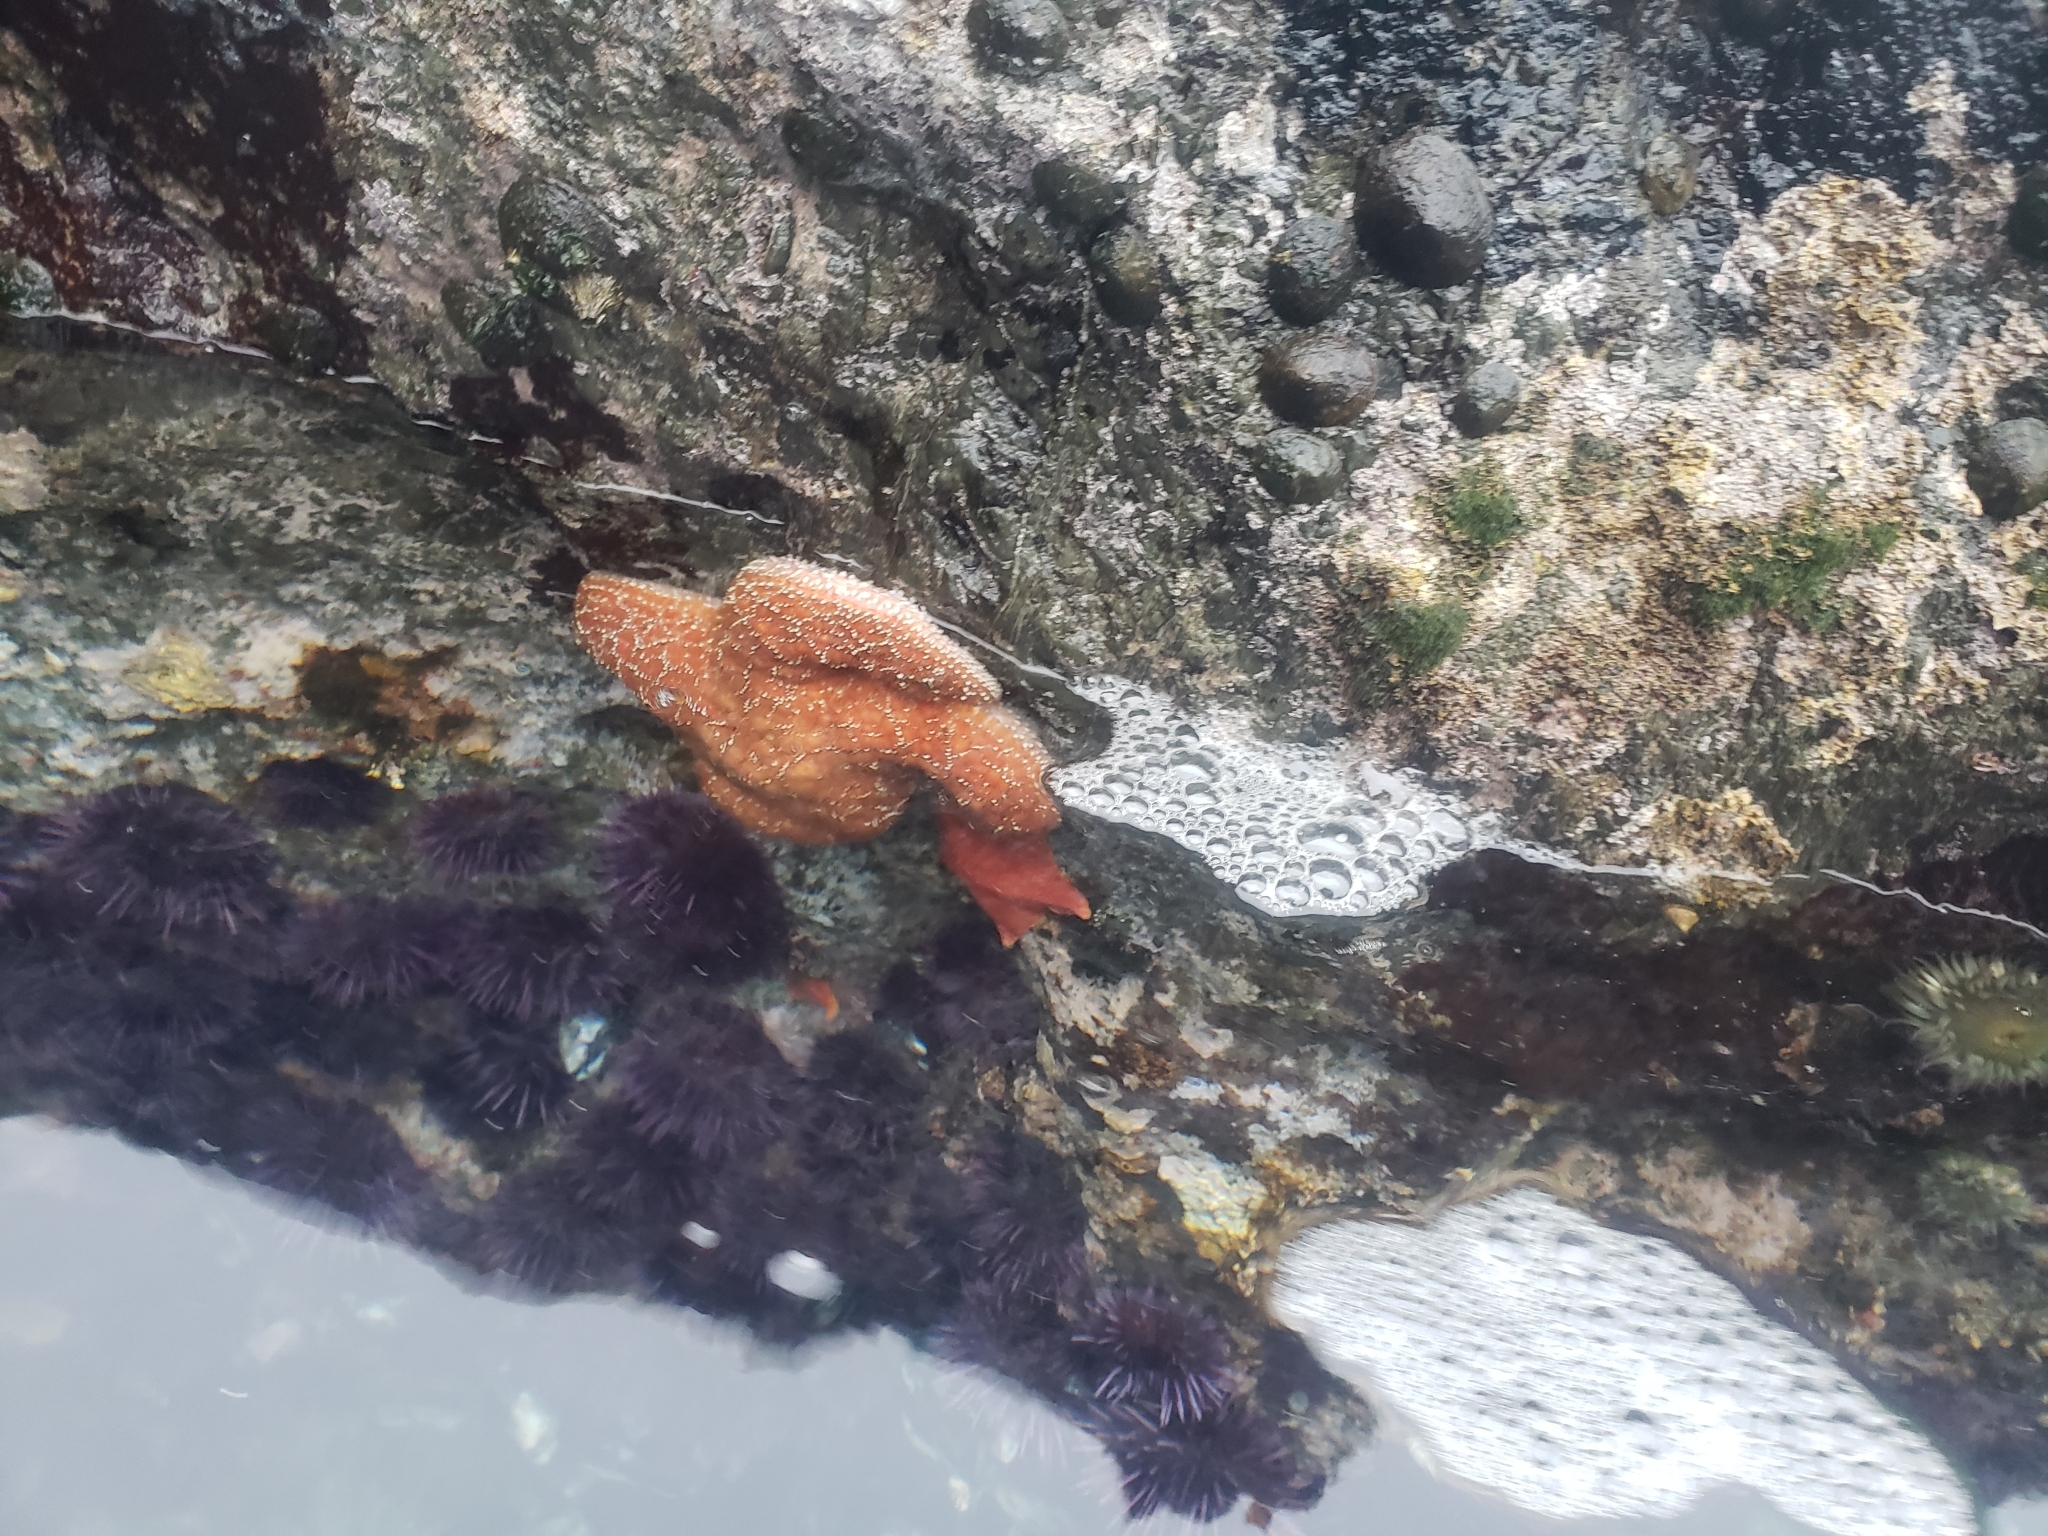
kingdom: Animalia
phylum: Echinodermata
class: Asteroidea
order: Forcipulatida
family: Asteriidae
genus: Pisaster
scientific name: Pisaster ochraceus
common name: Ochre stars
